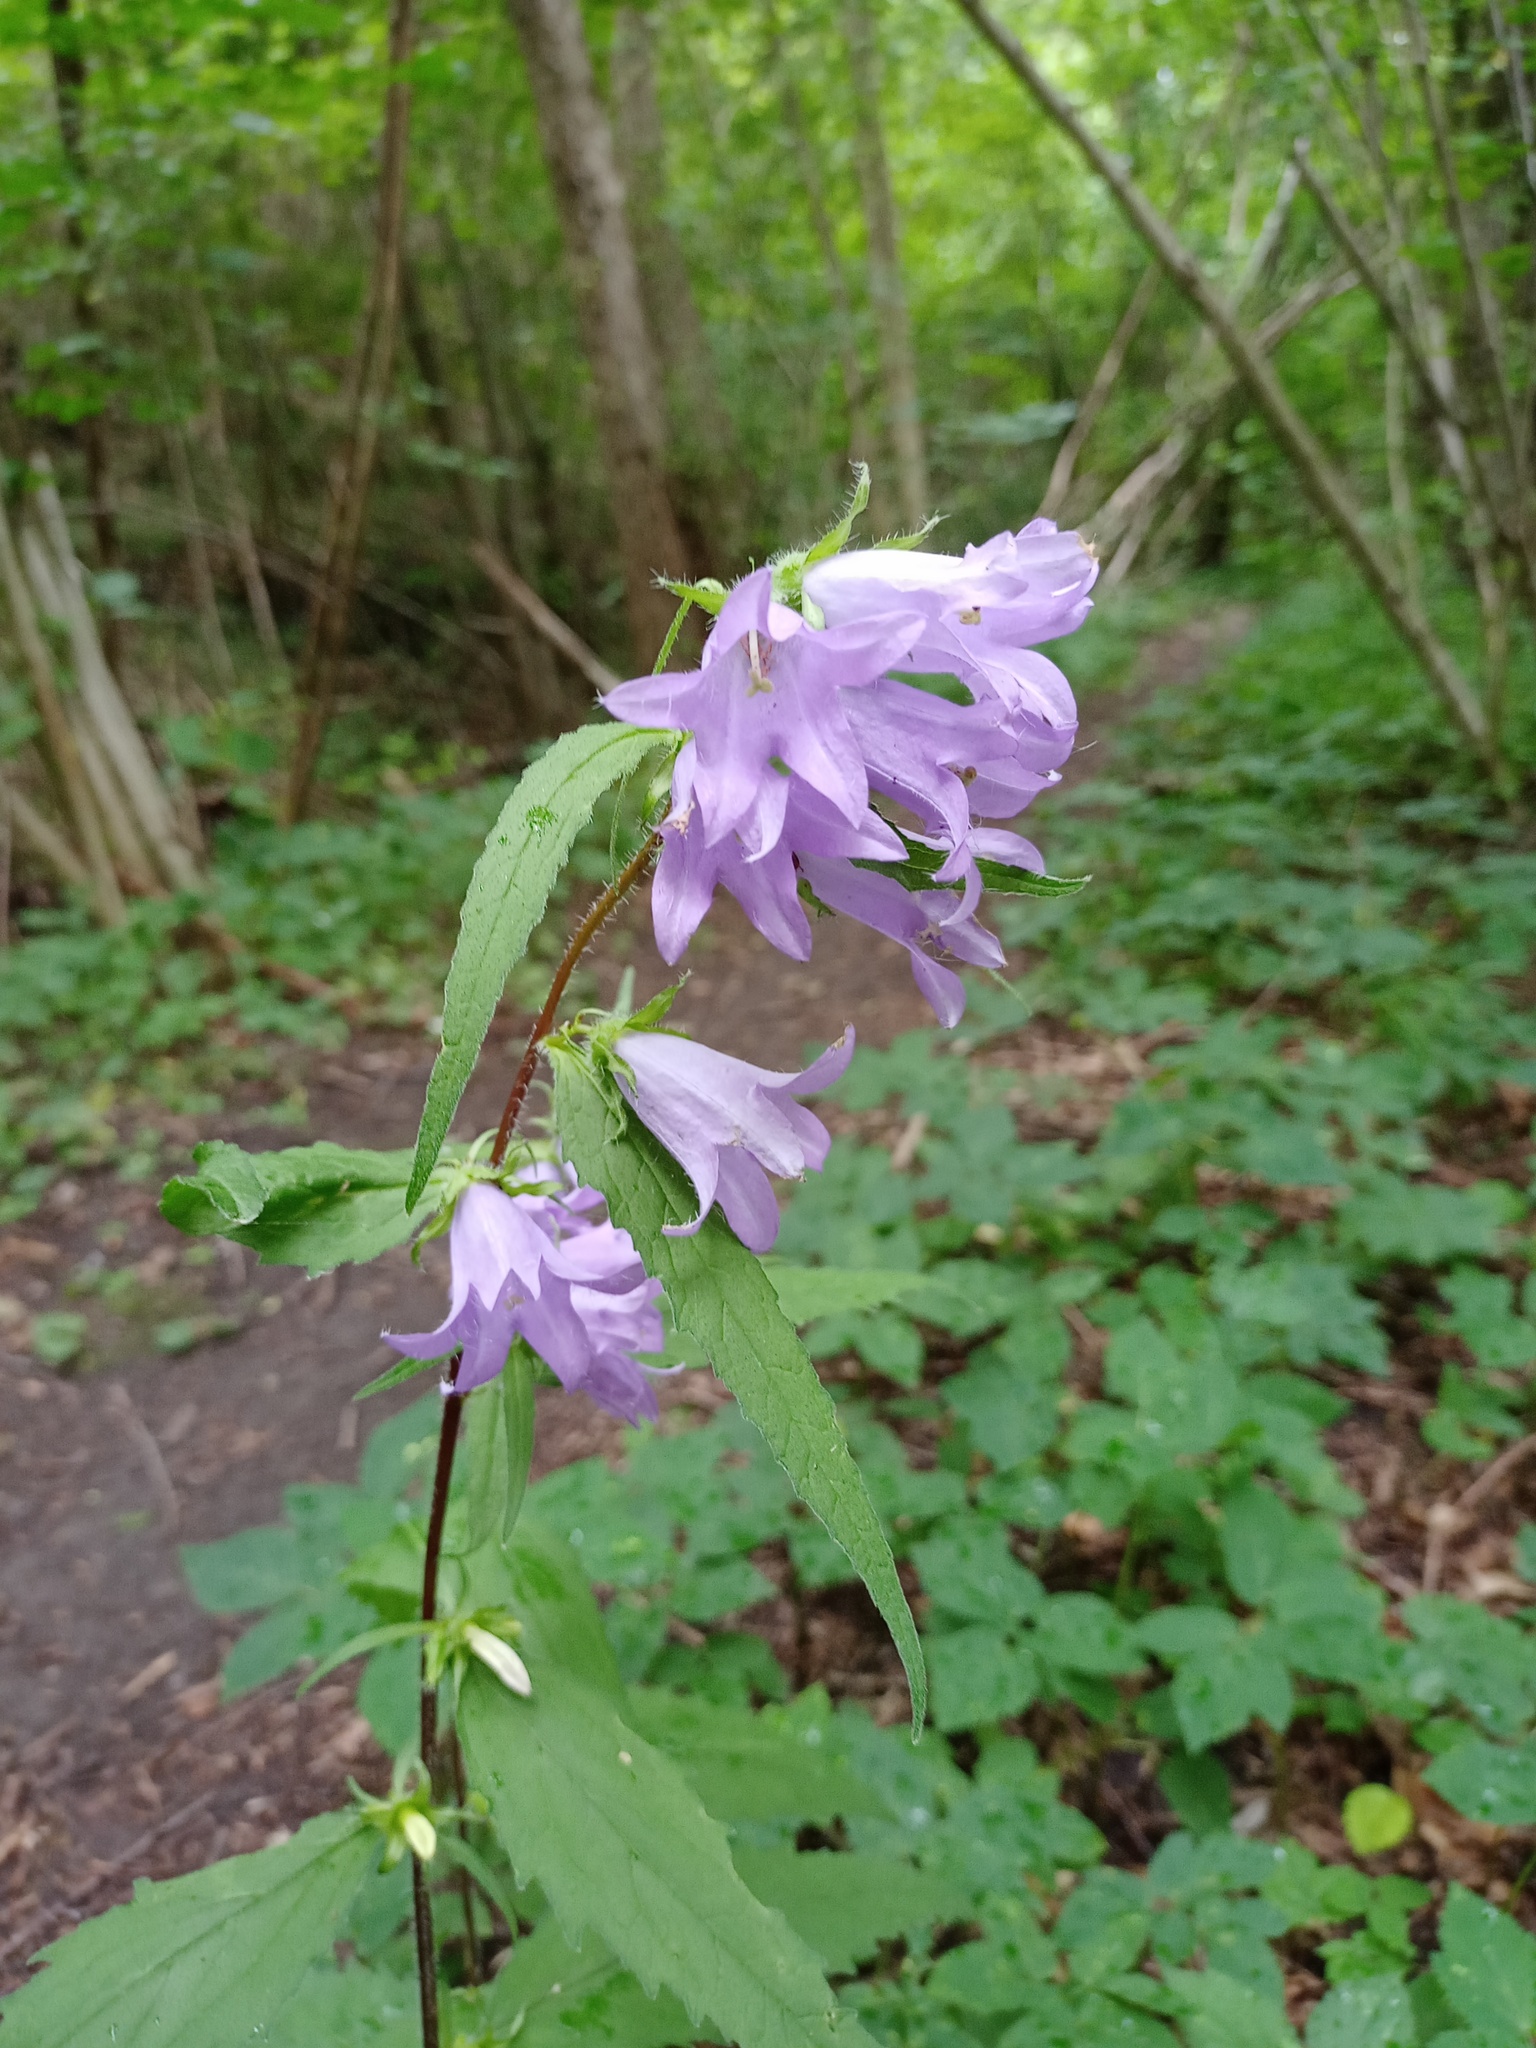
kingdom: Plantae
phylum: Tracheophyta
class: Magnoliopsida
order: Asterales
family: Campanulaceae
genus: Campanula
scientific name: Campanula trachelium
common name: Nettle-leaved bellflower
